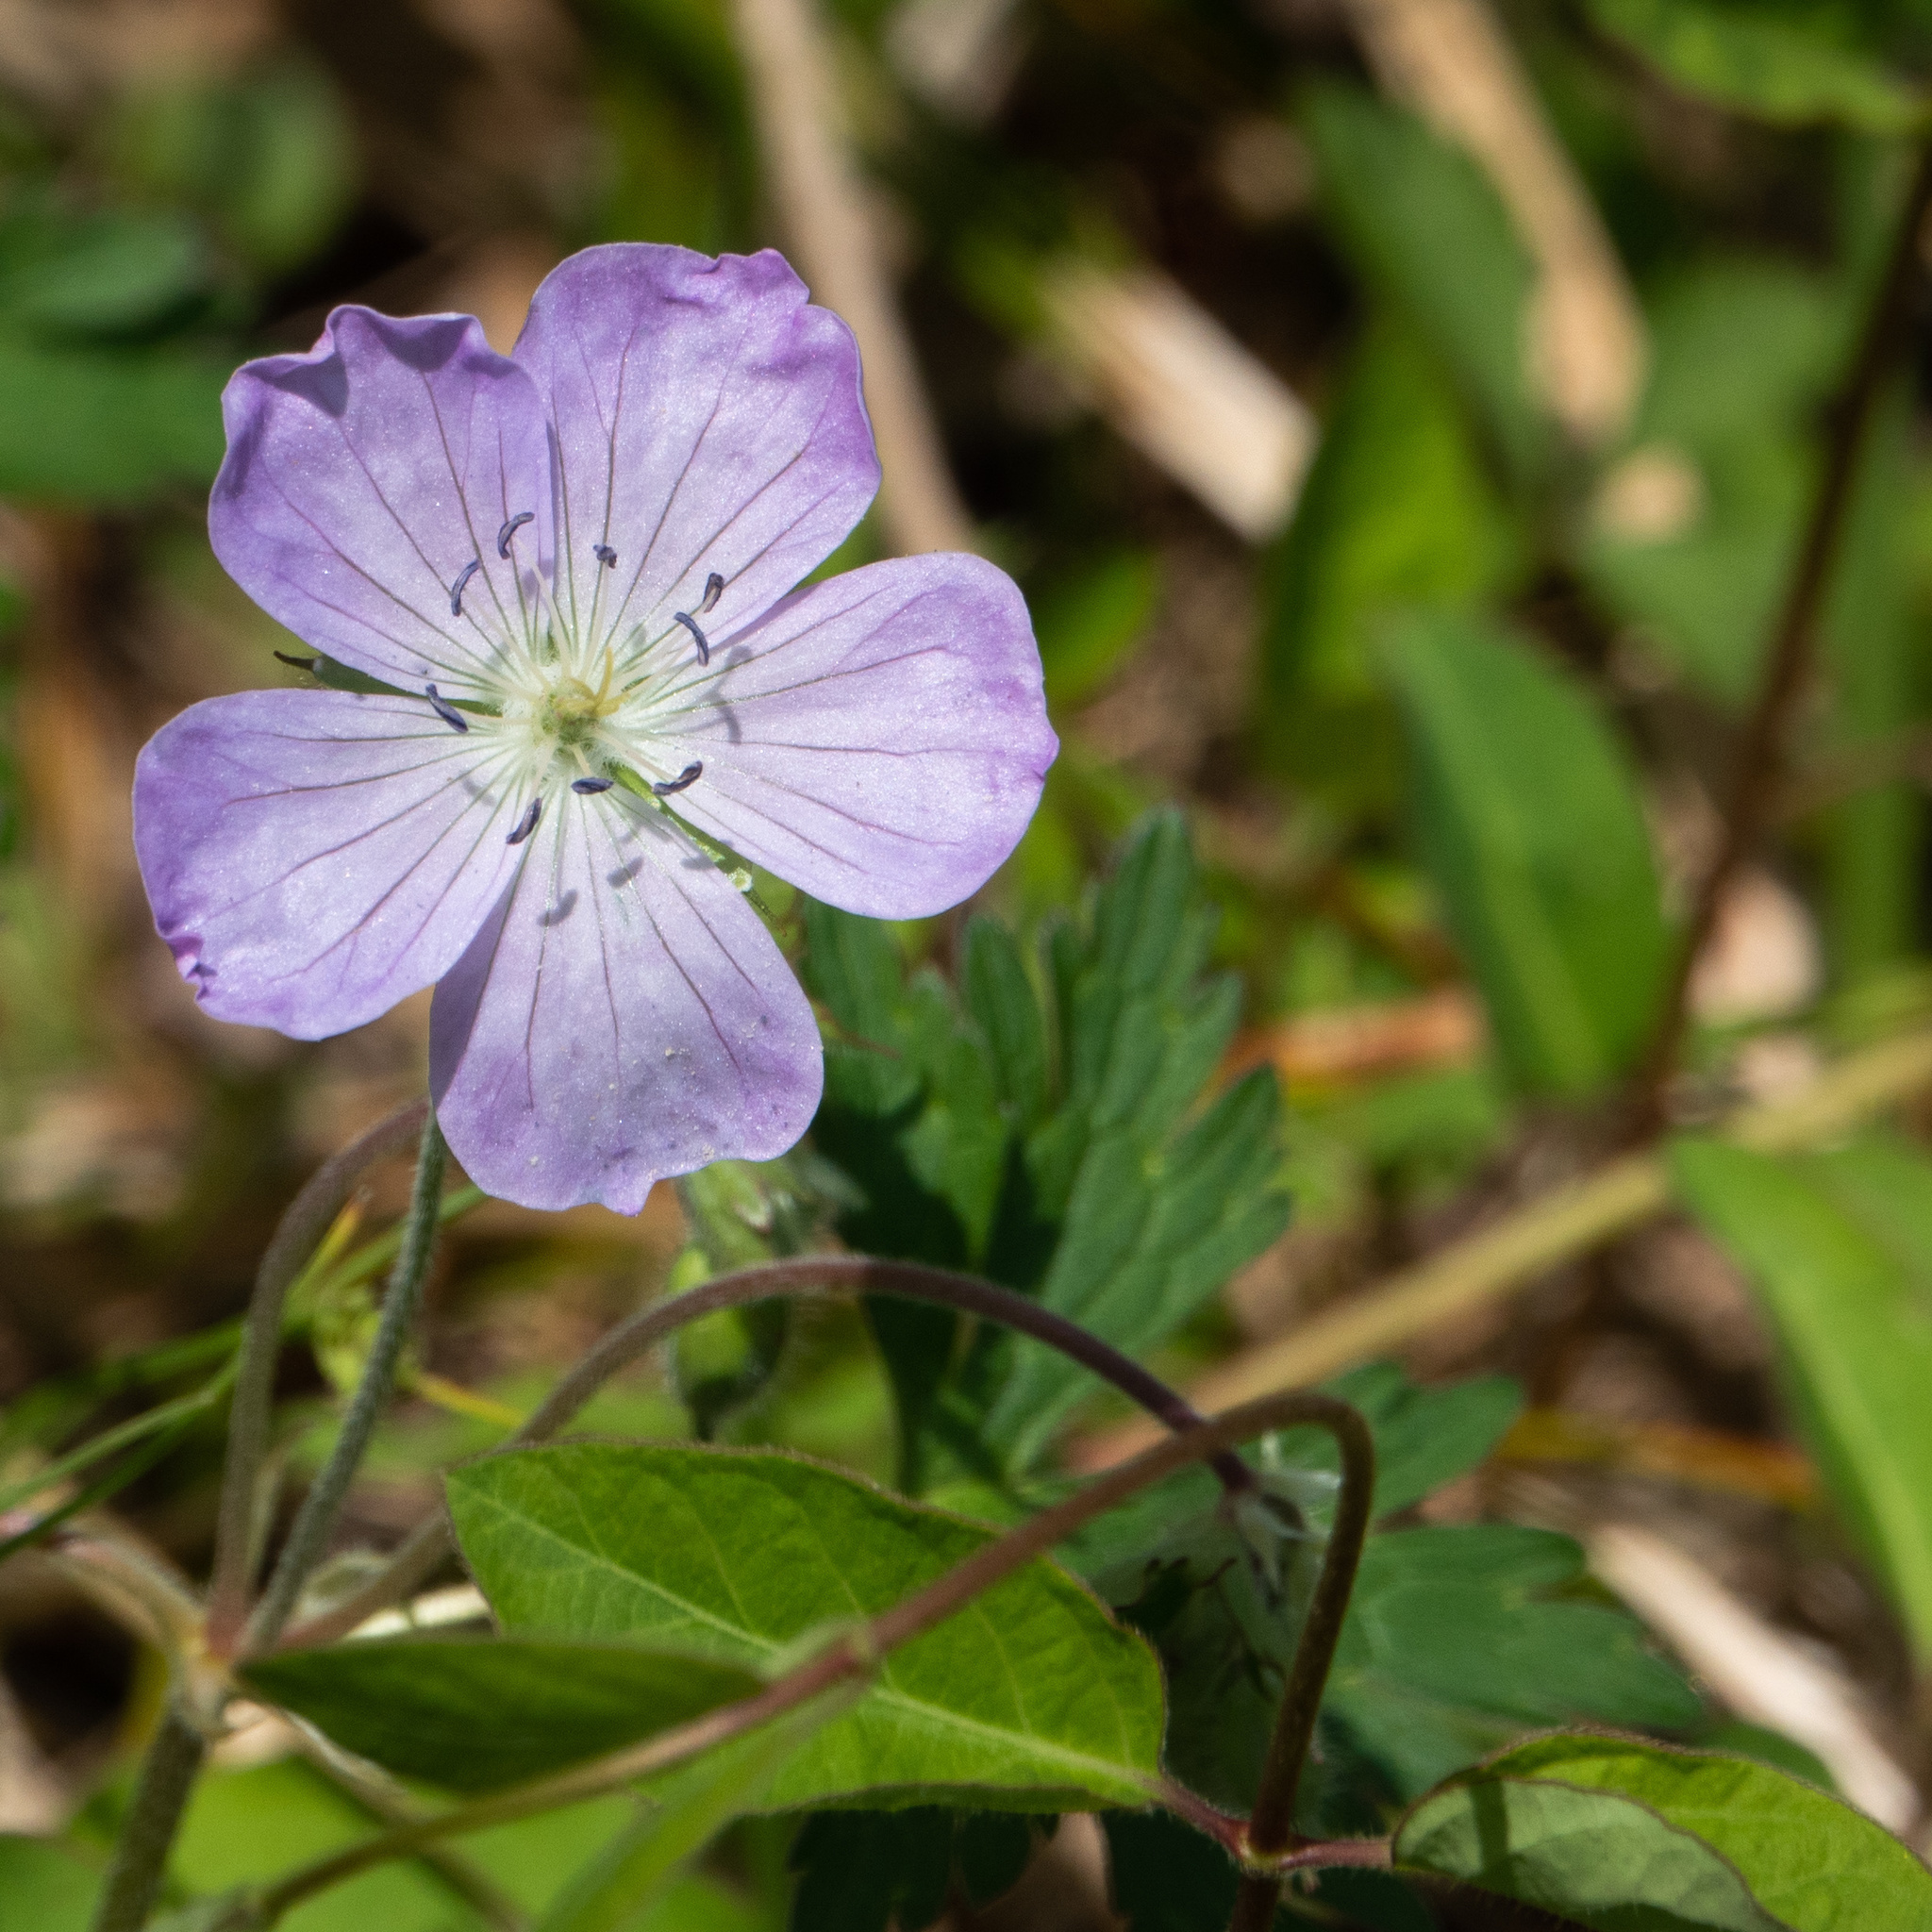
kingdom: Plantae
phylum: Tracheophyta
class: Magnoliopsida
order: Geraniales
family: Geraniaceae
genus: Geranium
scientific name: Geranium maculatum
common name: Spotted geranium
